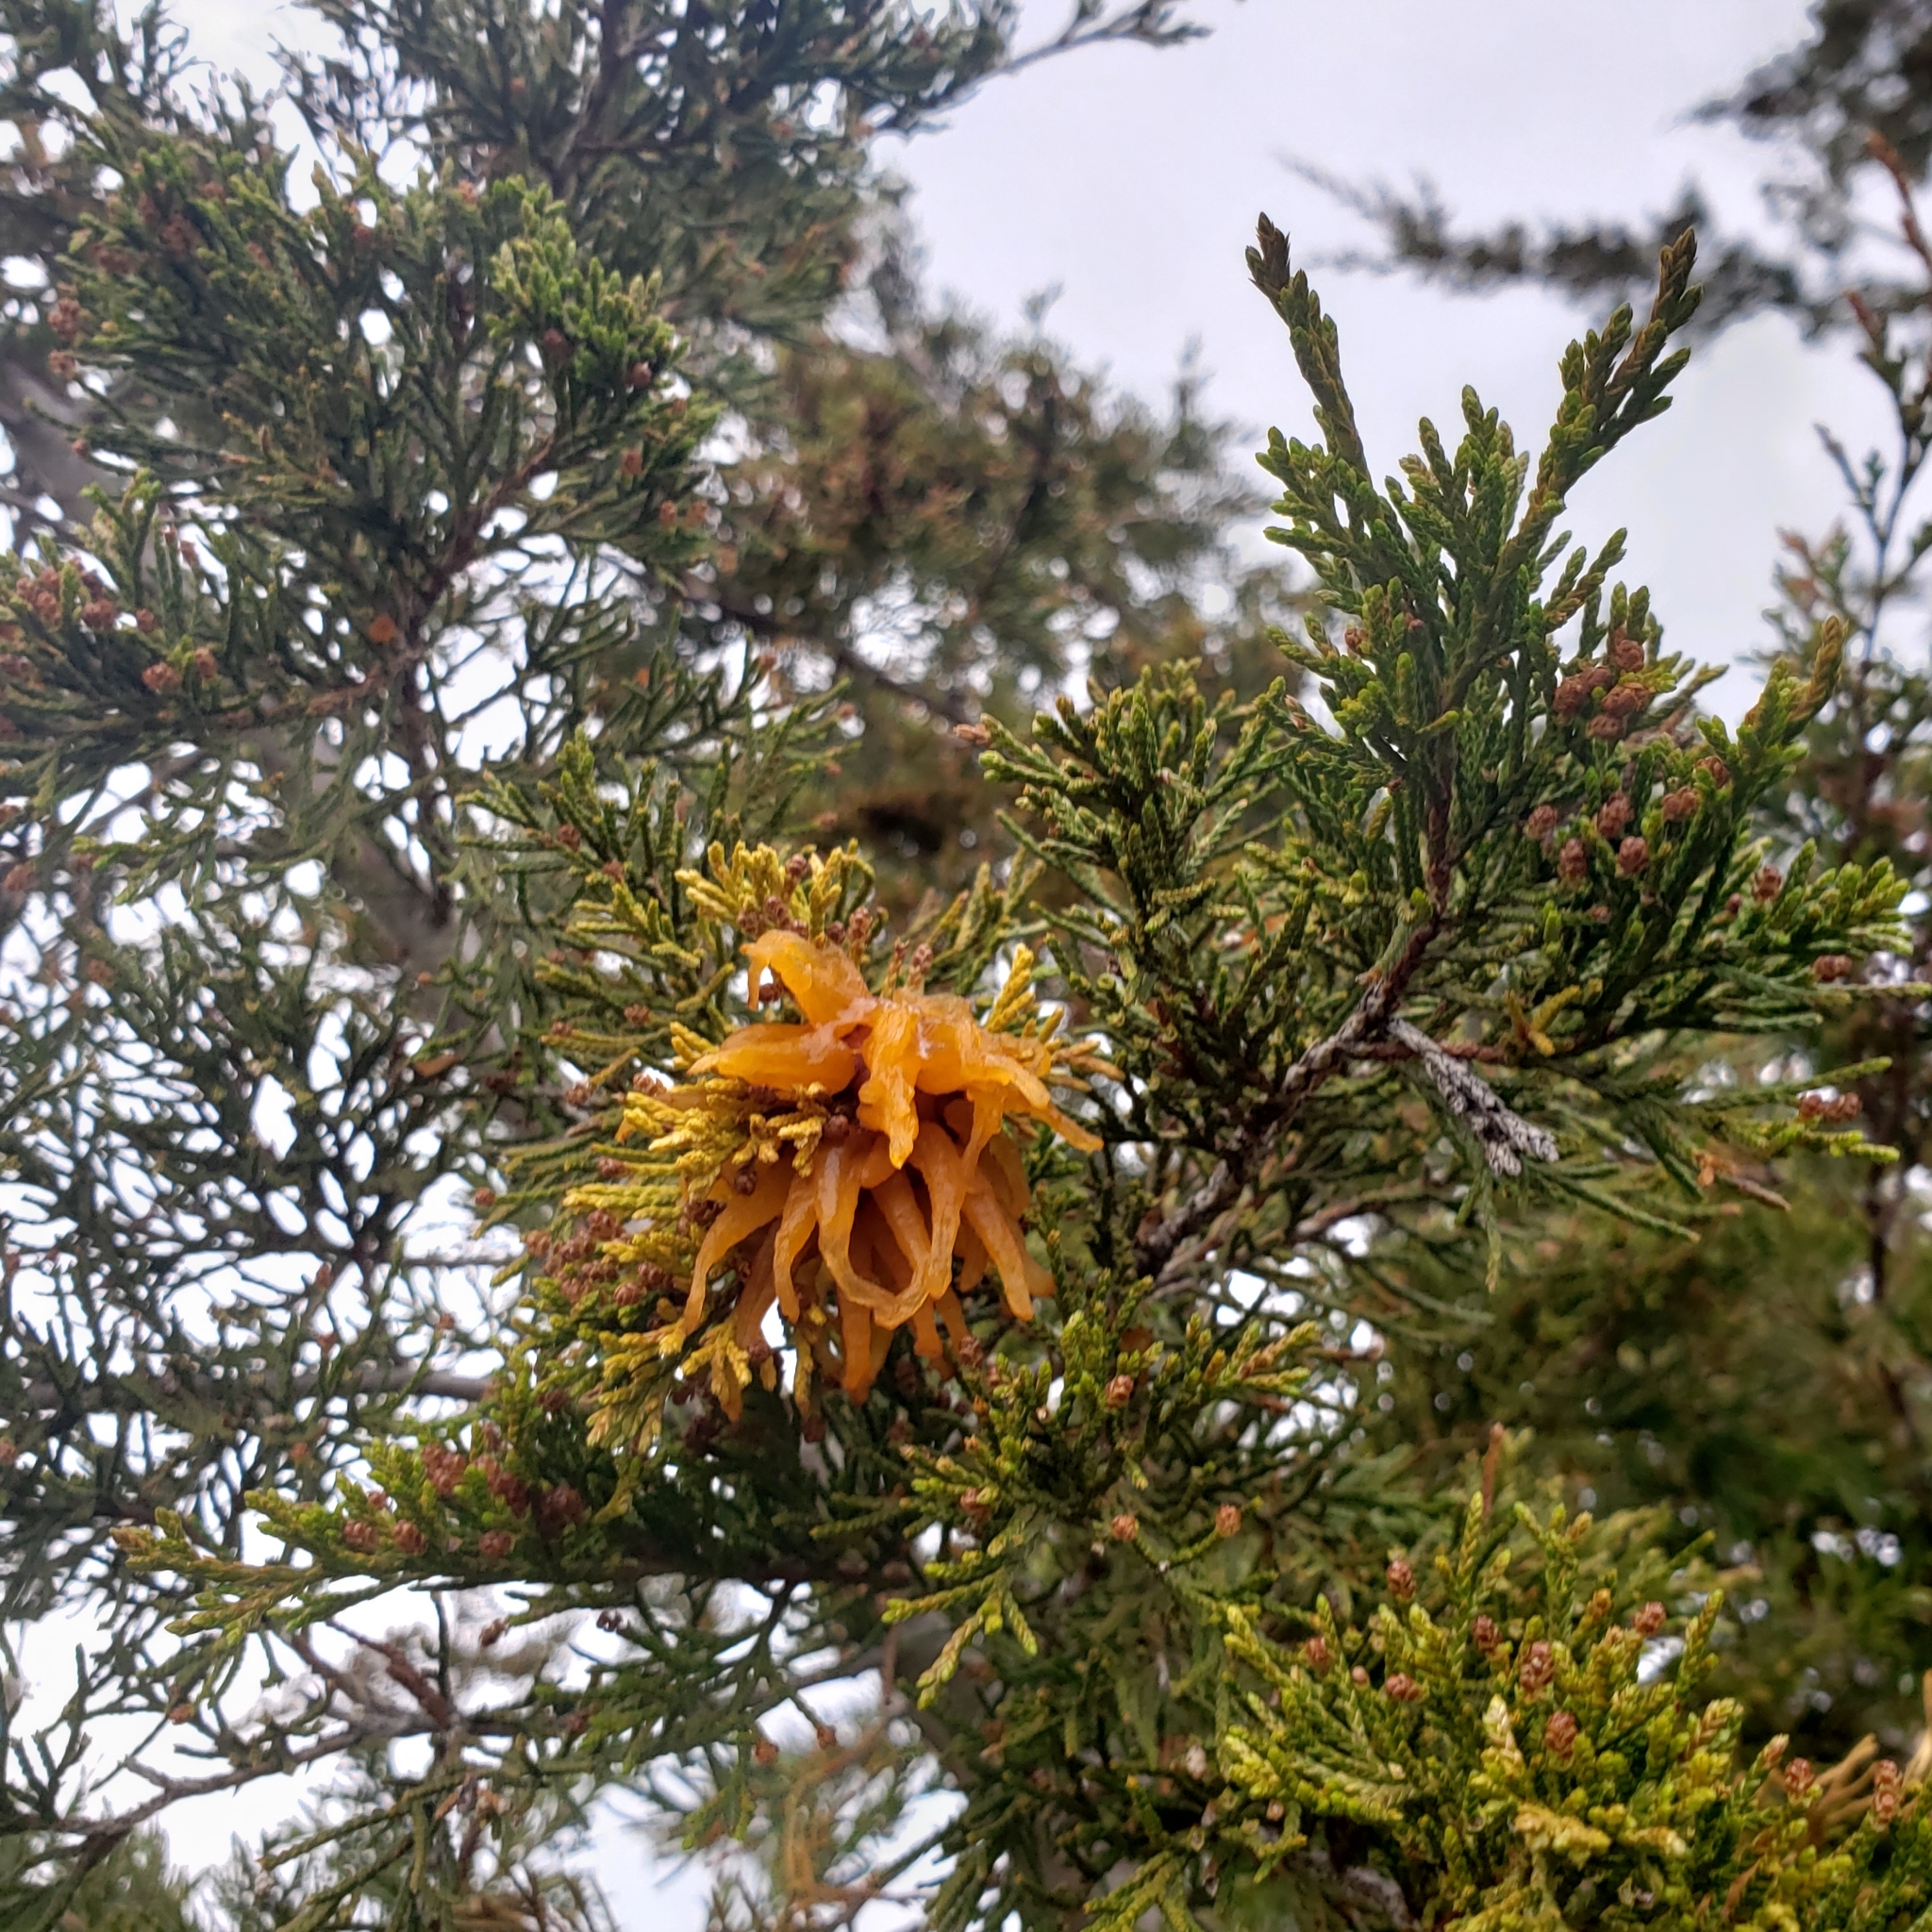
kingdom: Fungi
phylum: Basidiomycota
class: Pucciniomycetes
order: Pucciniales
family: Gymnosporangiaceae
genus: Gymnosporangium
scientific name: Gymnosporangium juniperi-virginianae
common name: Juniper-apple rust
